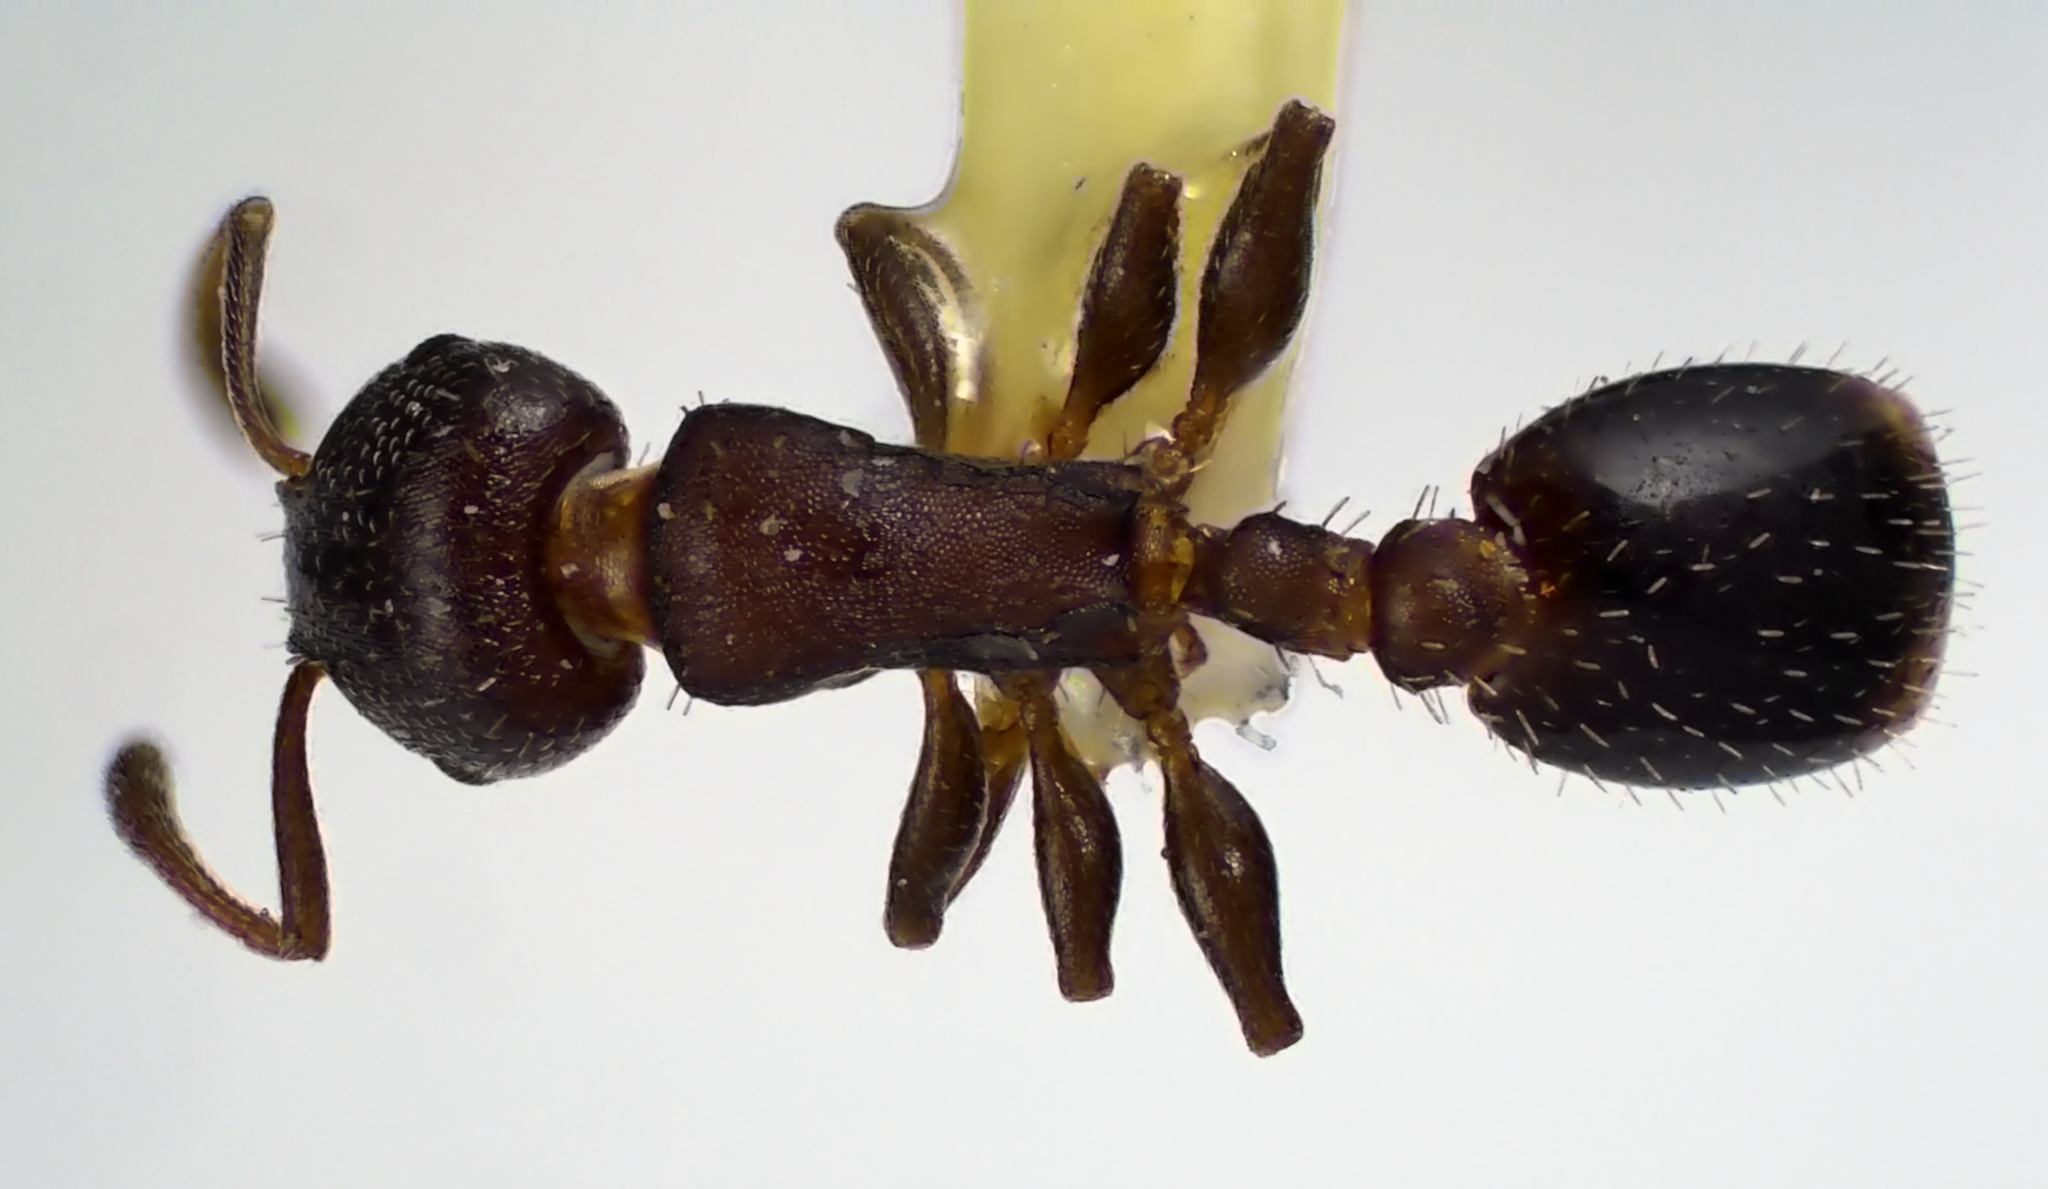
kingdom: Animalia
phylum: Arthropoda
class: Insecta
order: Hymenoptera
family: Formicidae
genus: Leptothorax
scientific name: Leptothorax schaumii
